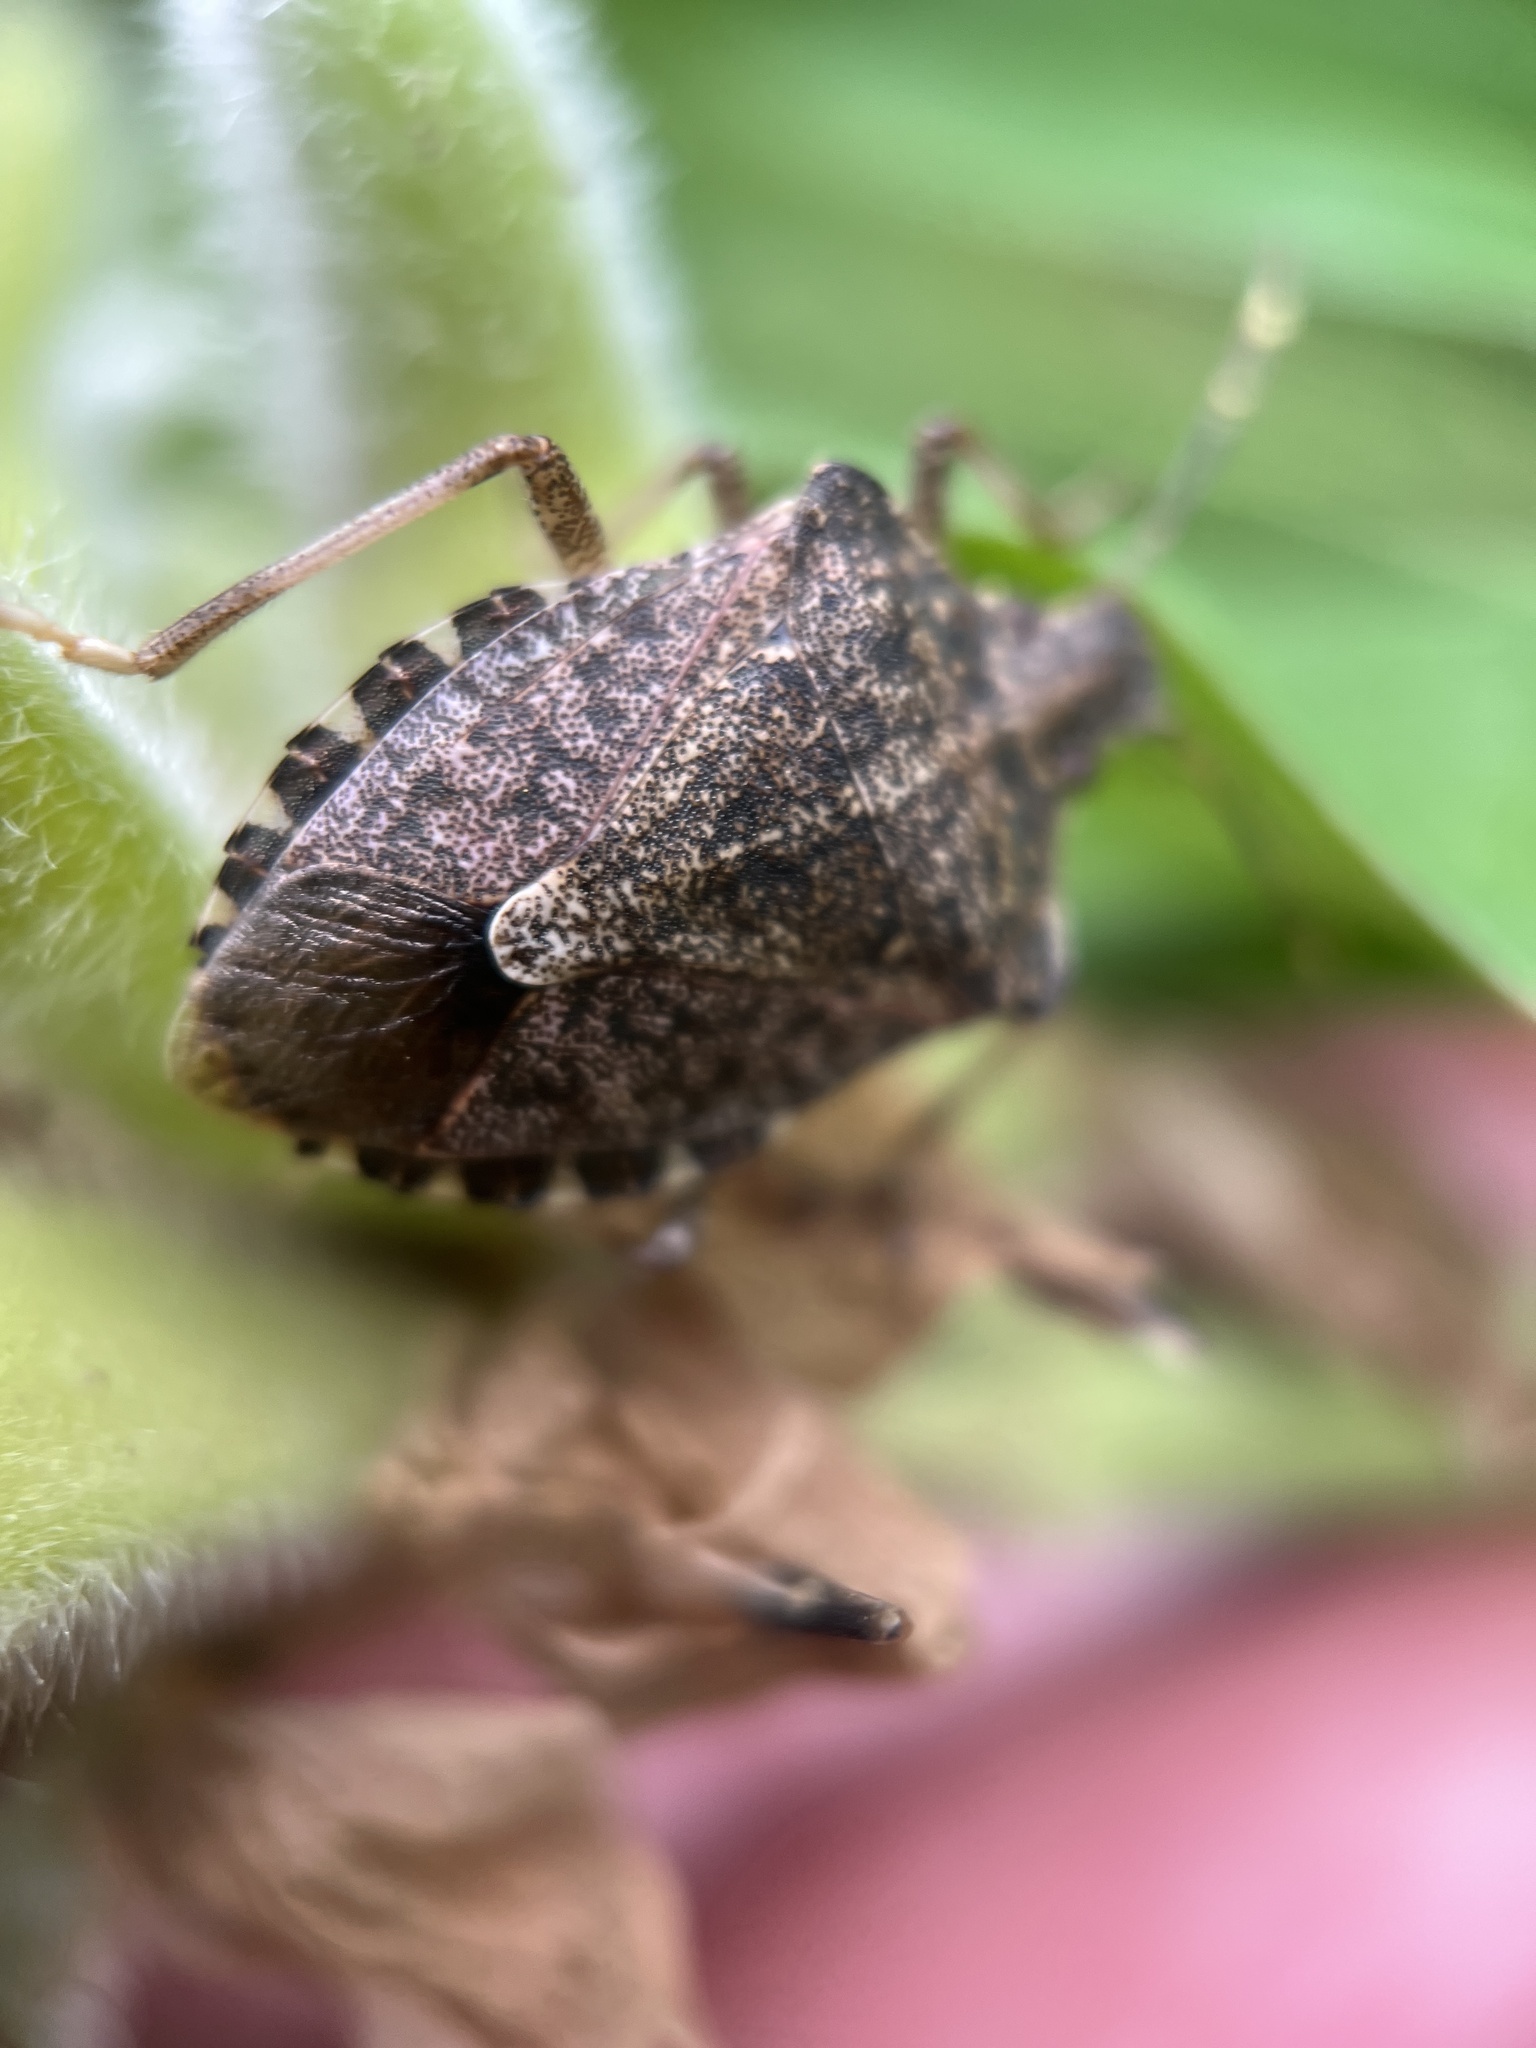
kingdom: Animalia
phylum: Arthropoda
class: Insecta
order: Hemiptera
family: Pentatomidae
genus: Halyomorpha
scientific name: Halyomorpha halys
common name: Brown marmorated stink bug
